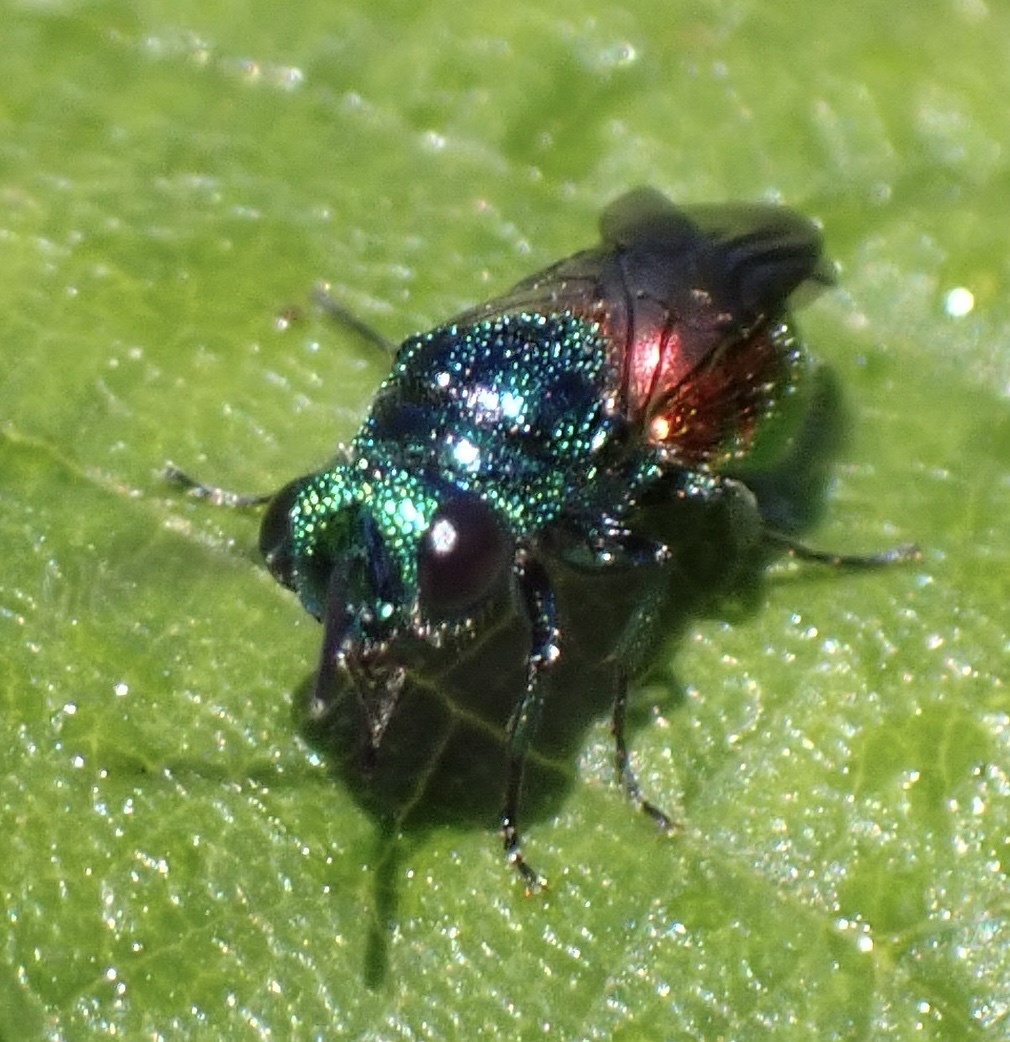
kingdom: Animalia
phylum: Arthropoda
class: Insecta
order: Hymenoptera
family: Chrysididae
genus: Pseudomalus
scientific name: Pseudomalus auratus
